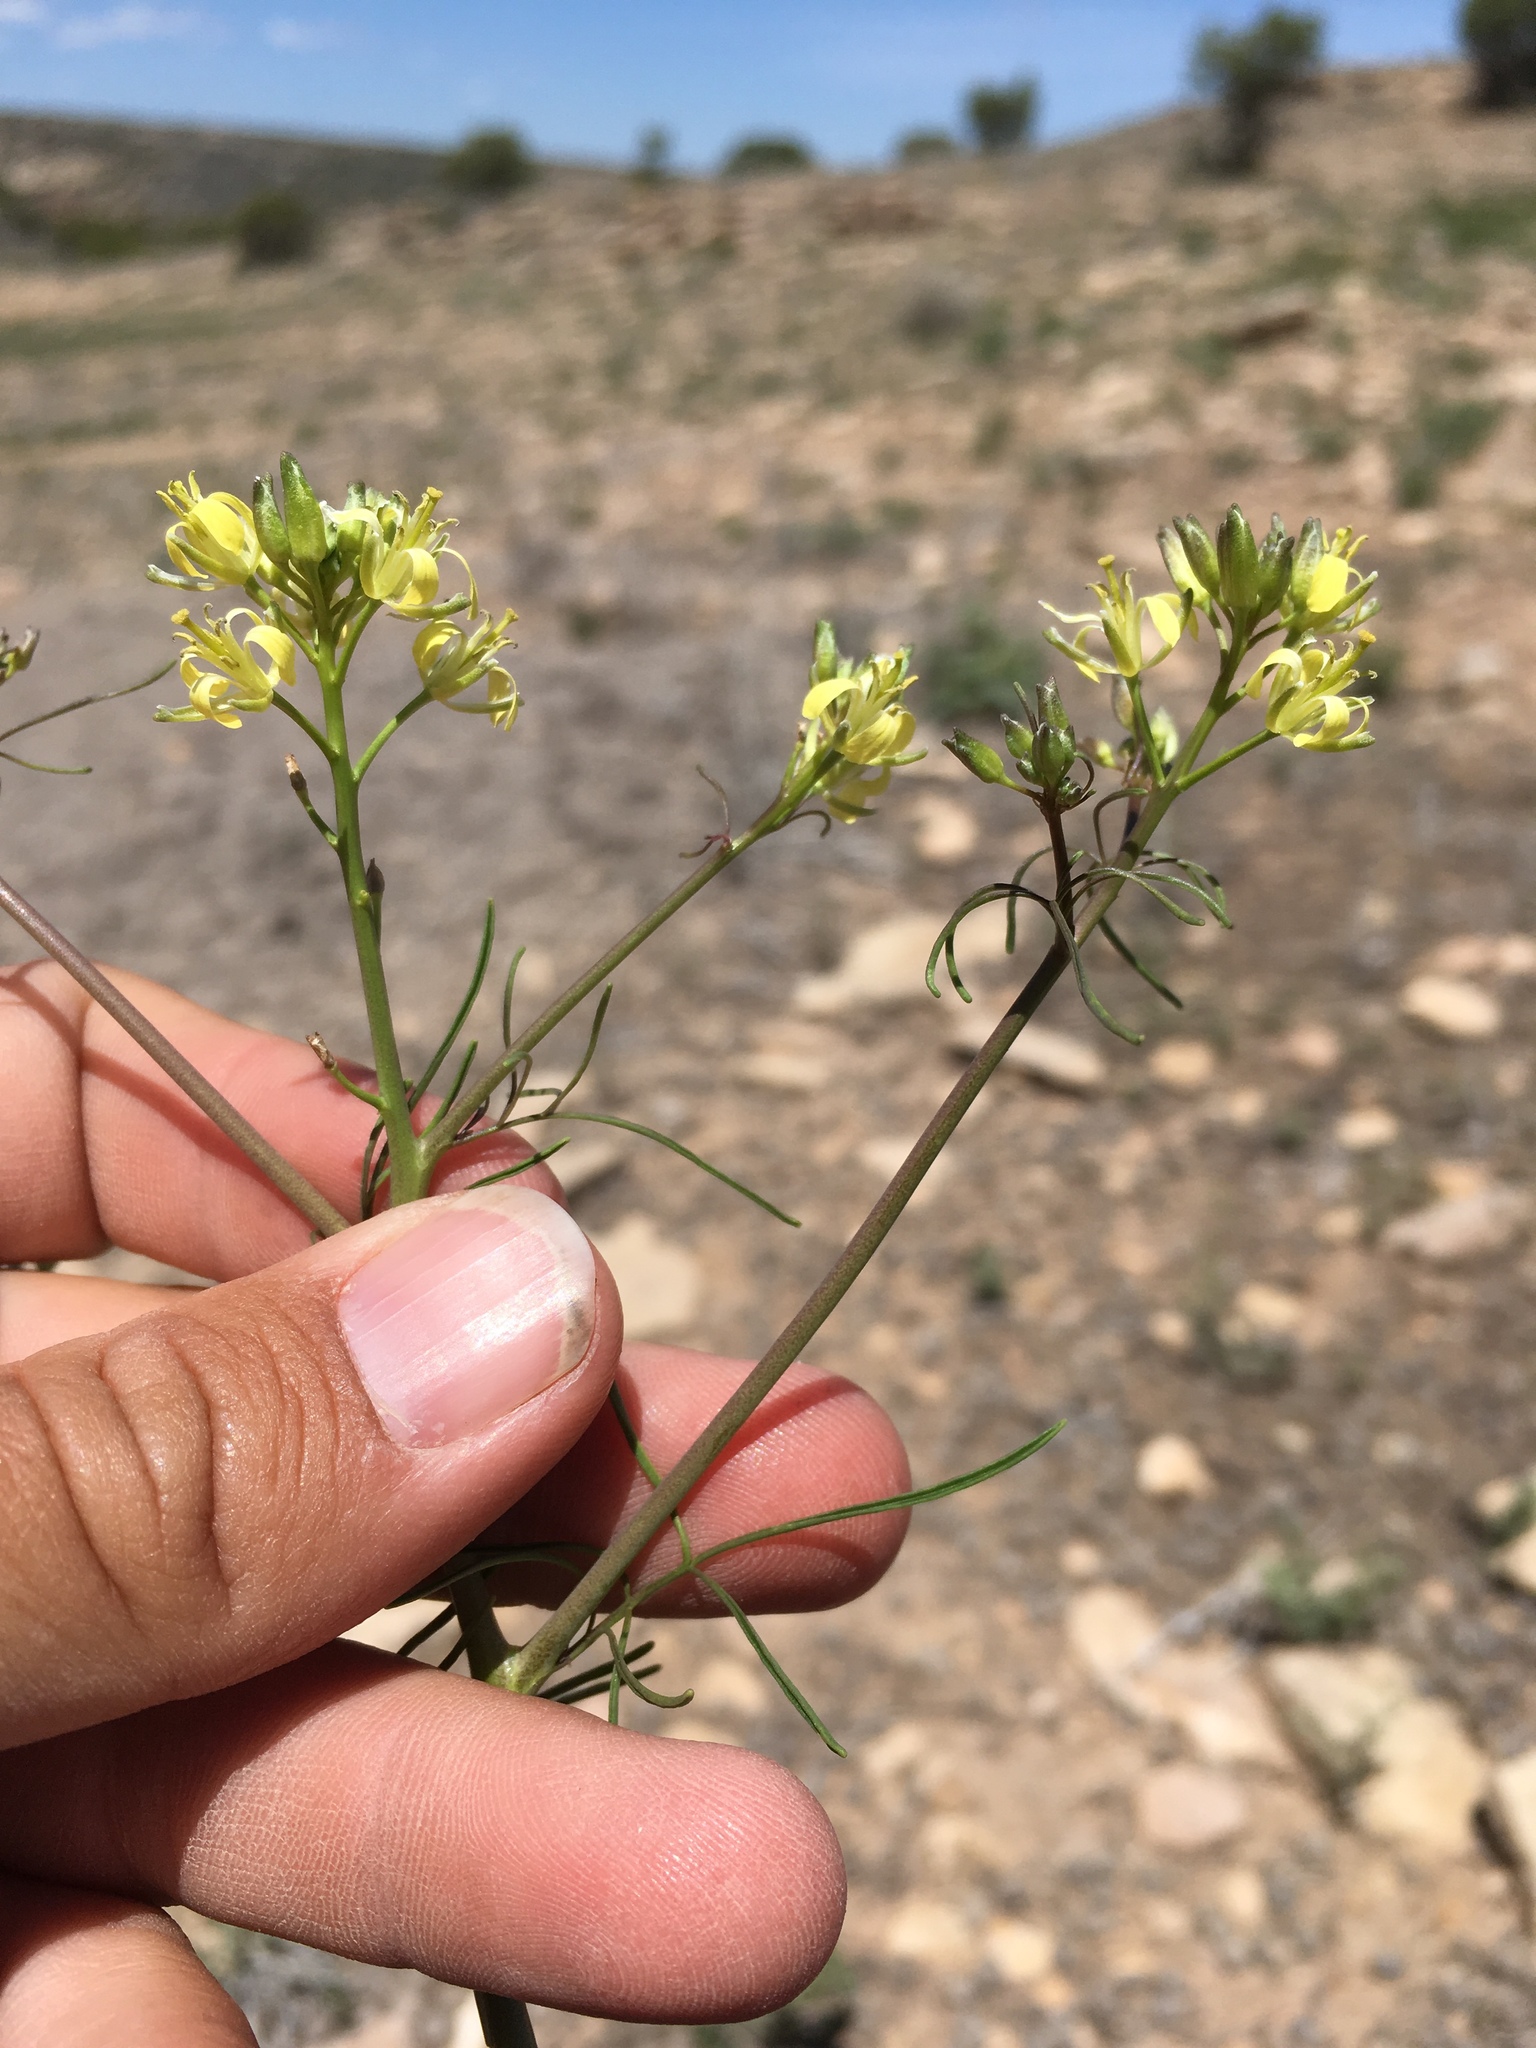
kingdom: Plantae
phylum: Tracheophyta
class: Magnoliopsida
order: Brassicales
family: Brassicaceae
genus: Sisymbrium
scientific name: Sisymbrium altissimum
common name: Tall rocket
